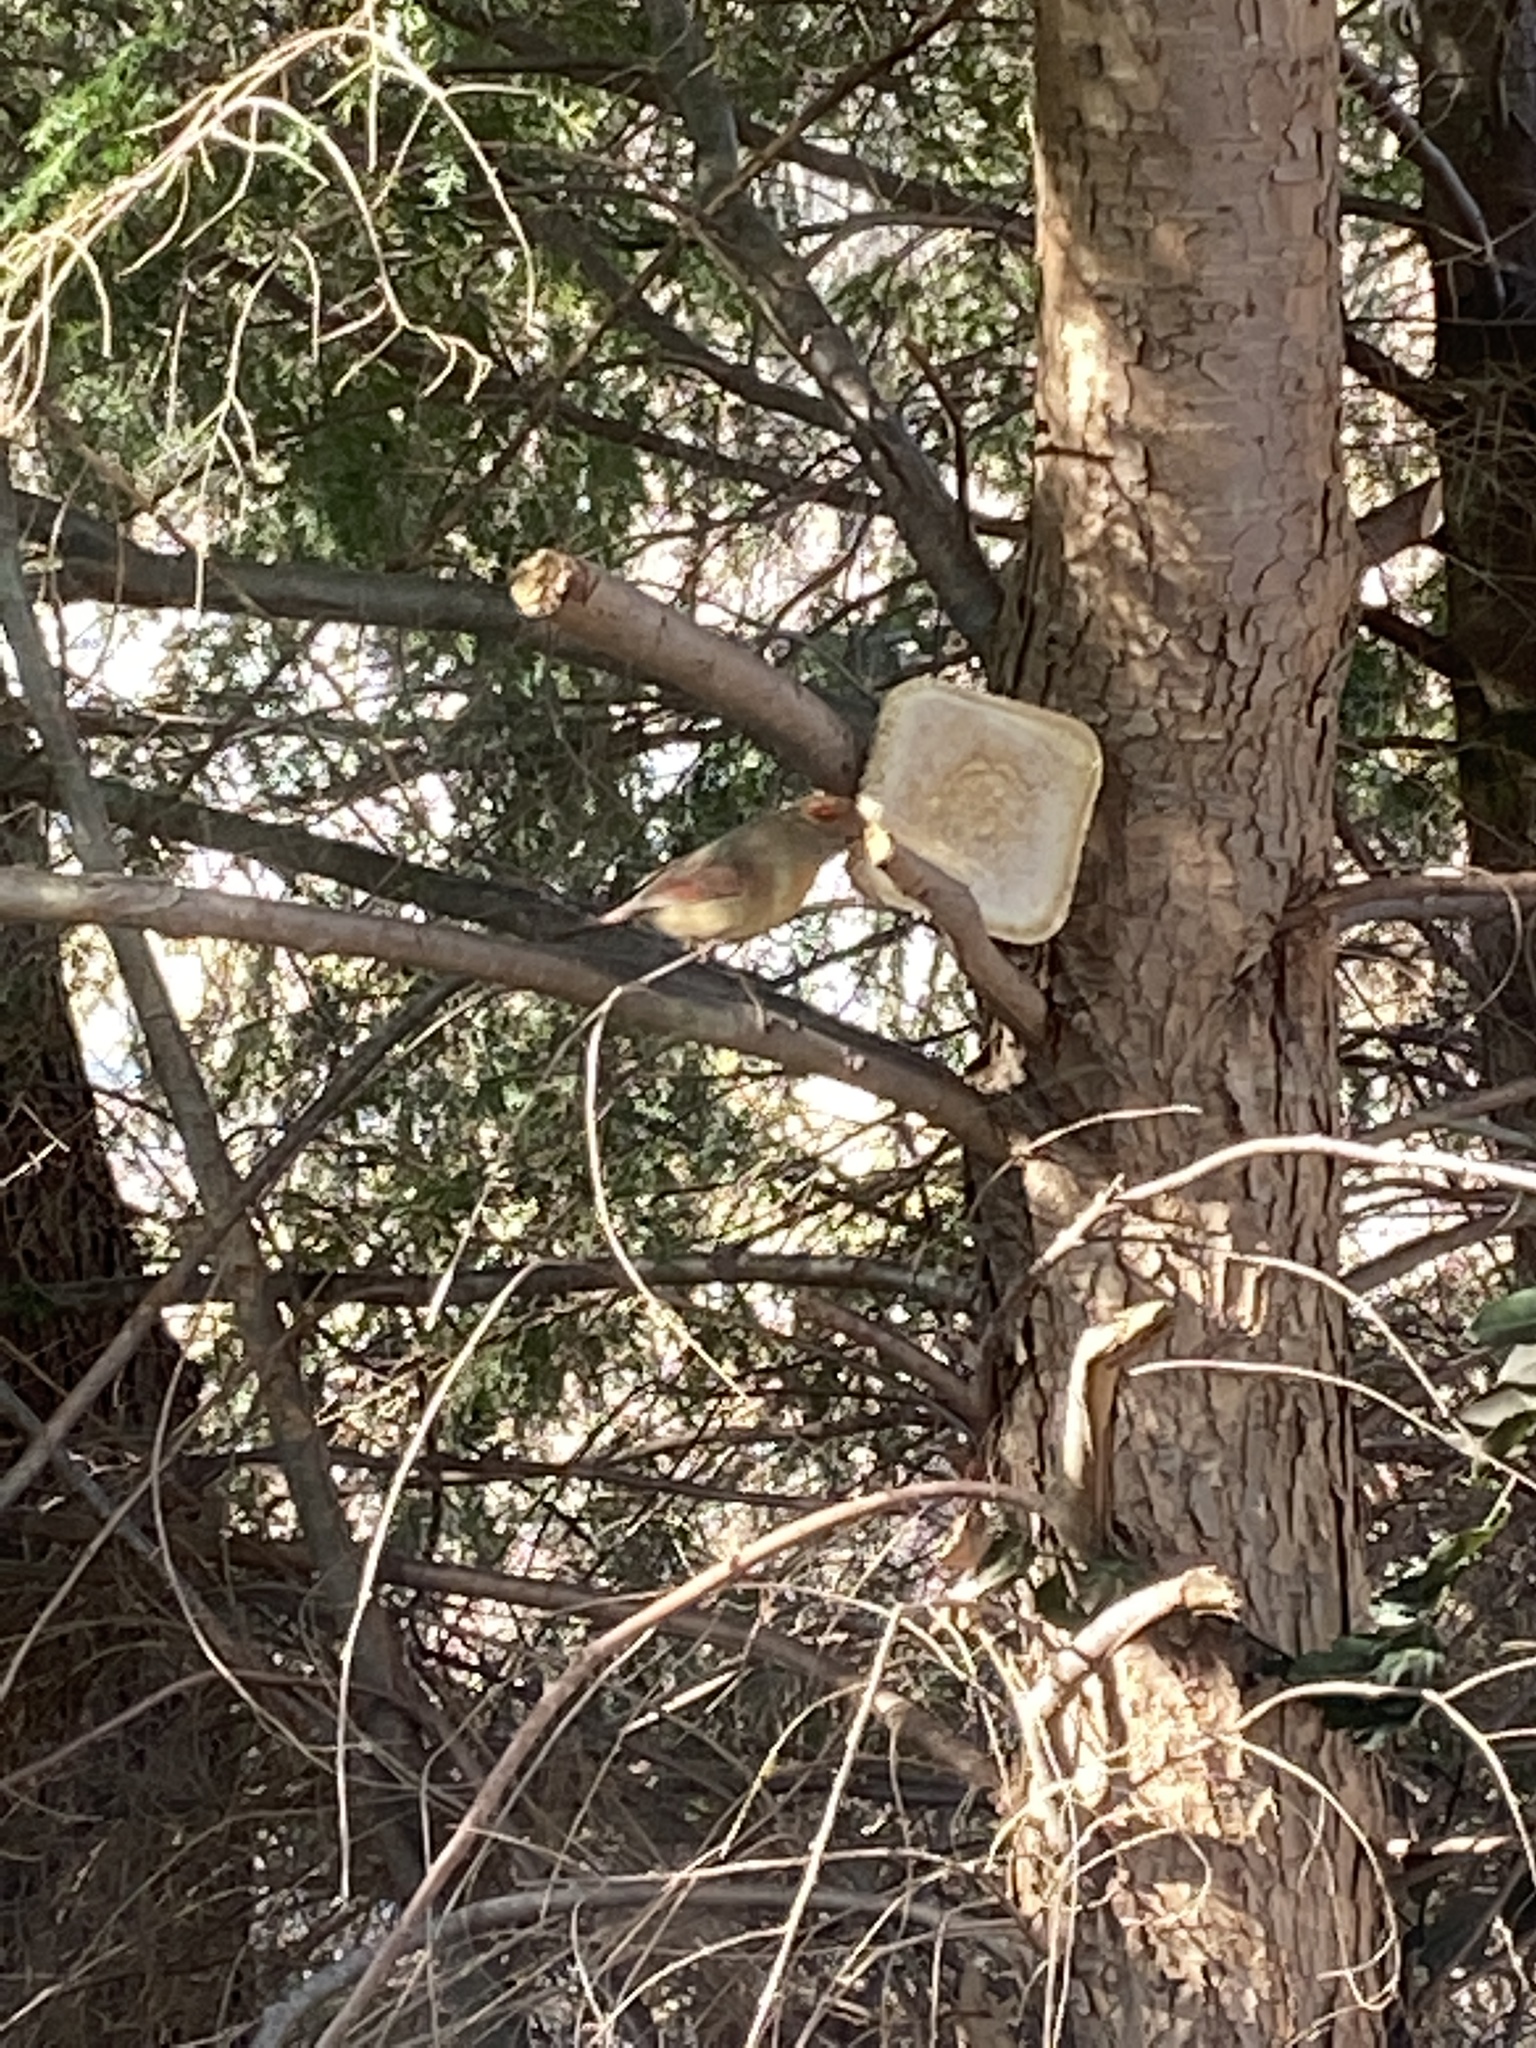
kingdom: Animalia
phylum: Chordata
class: Aves
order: Passeriformes
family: Cardinalidae
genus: Cardinalis
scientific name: Cardinalis cardinalis
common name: Northern cardinal
